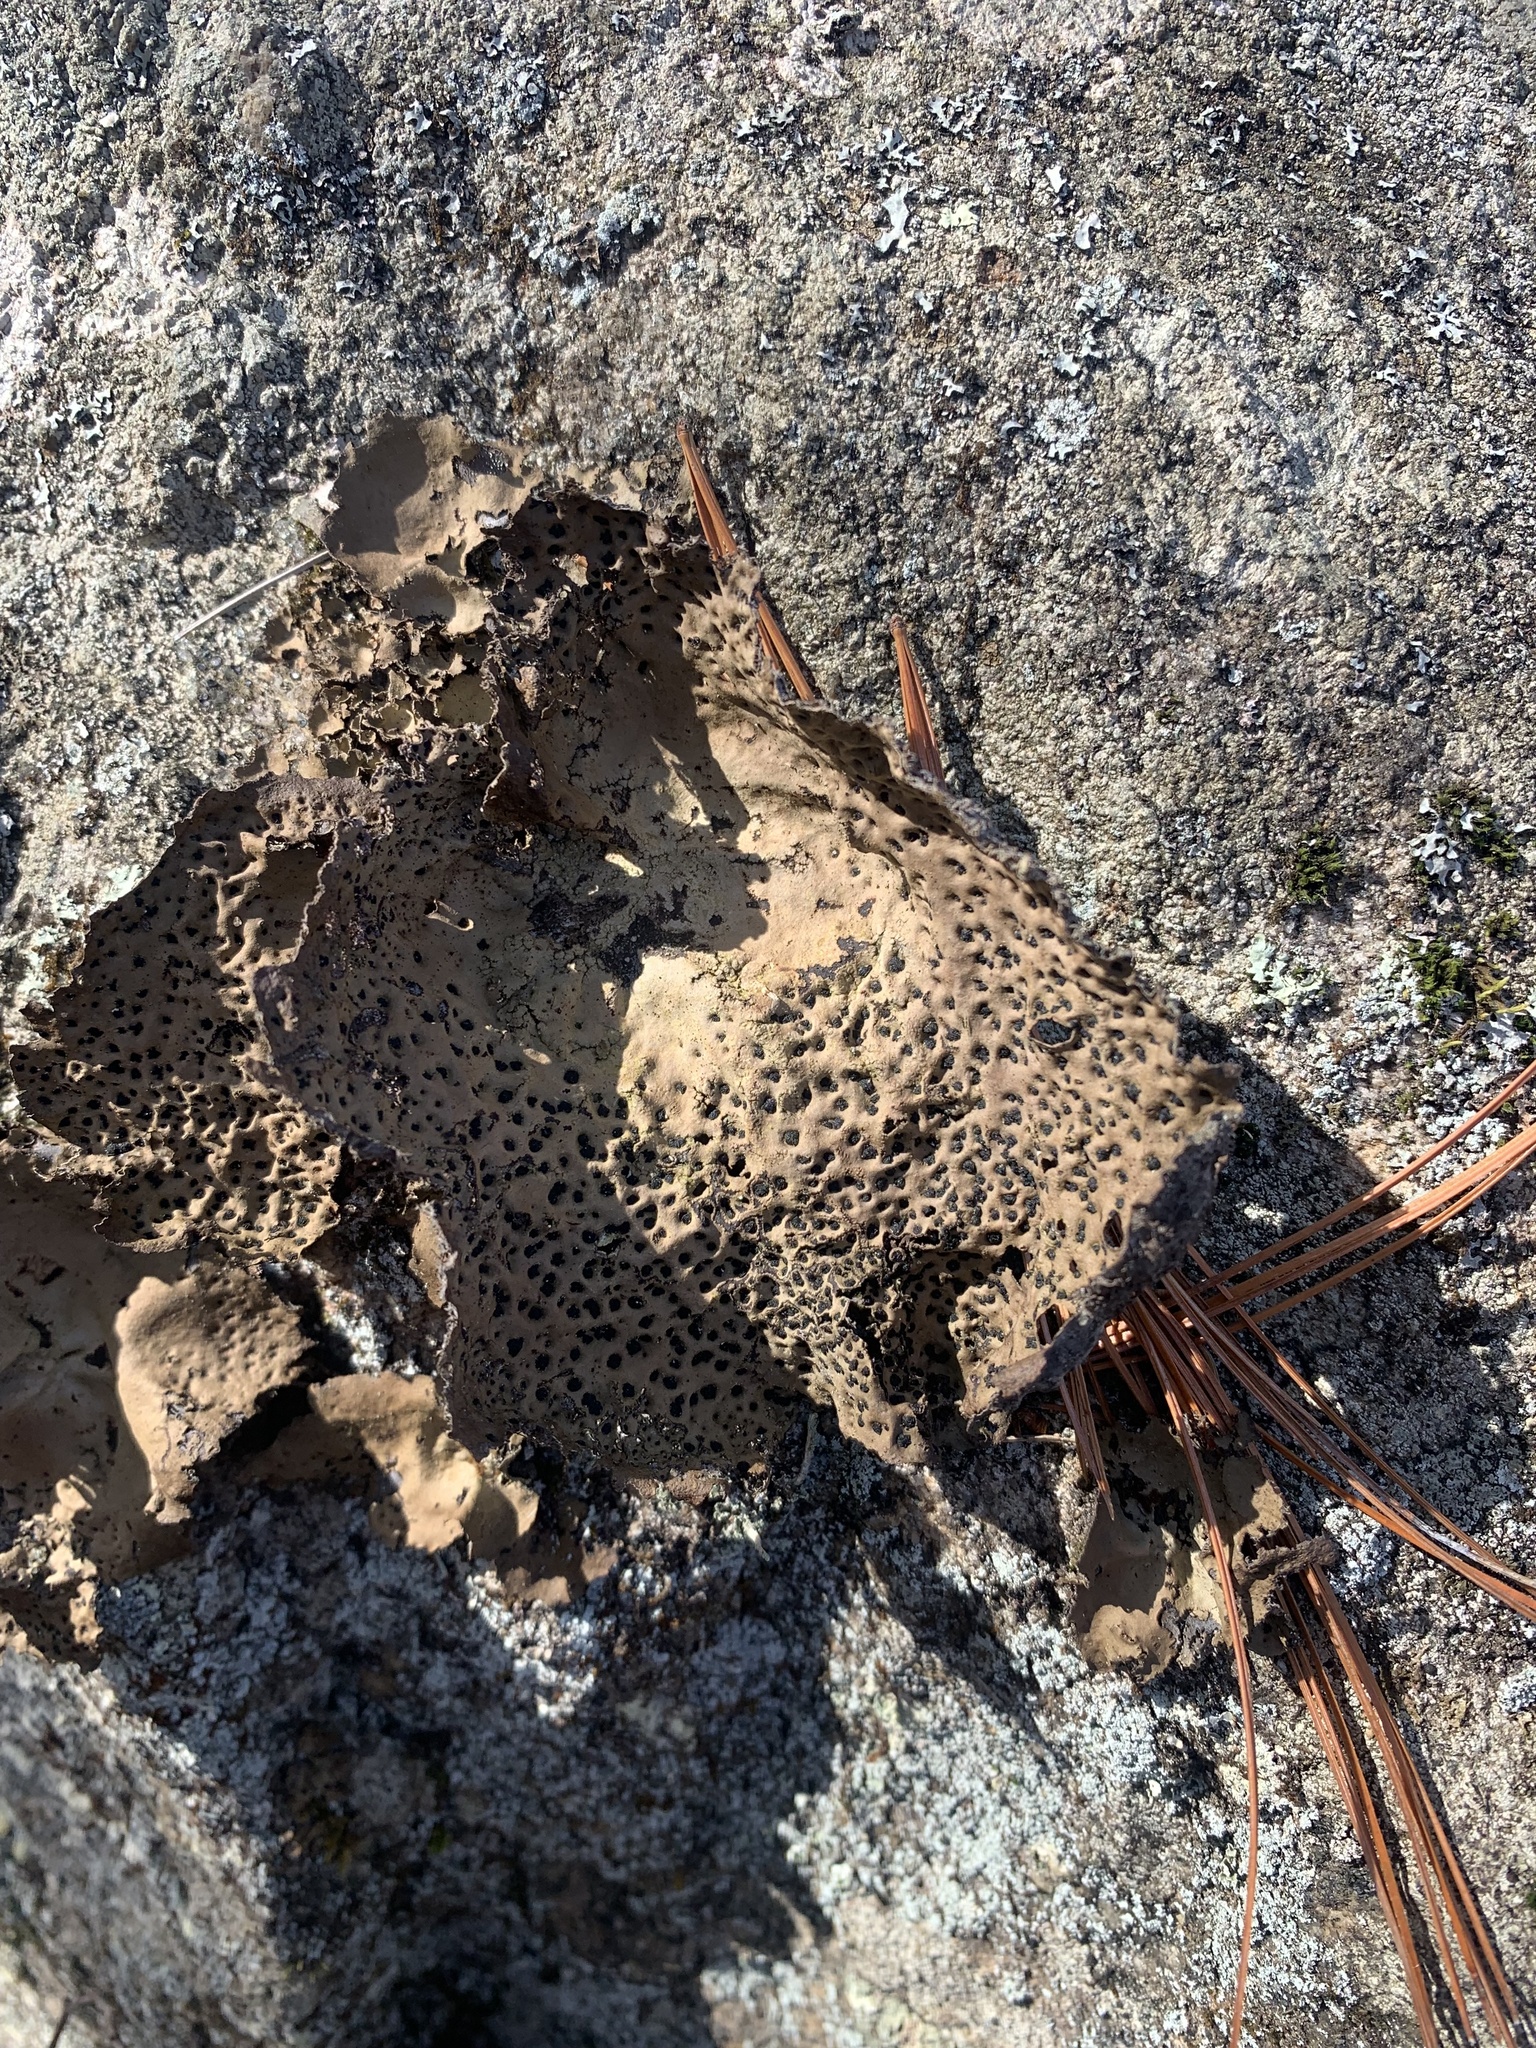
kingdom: Fungi
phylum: Ascomycota
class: Lecanoromycetes
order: Umbilicariales
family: Umbilicariaceae
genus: Umbilicaria
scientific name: Umbilicaria muhlenbergii
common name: Lesser rocktripe
